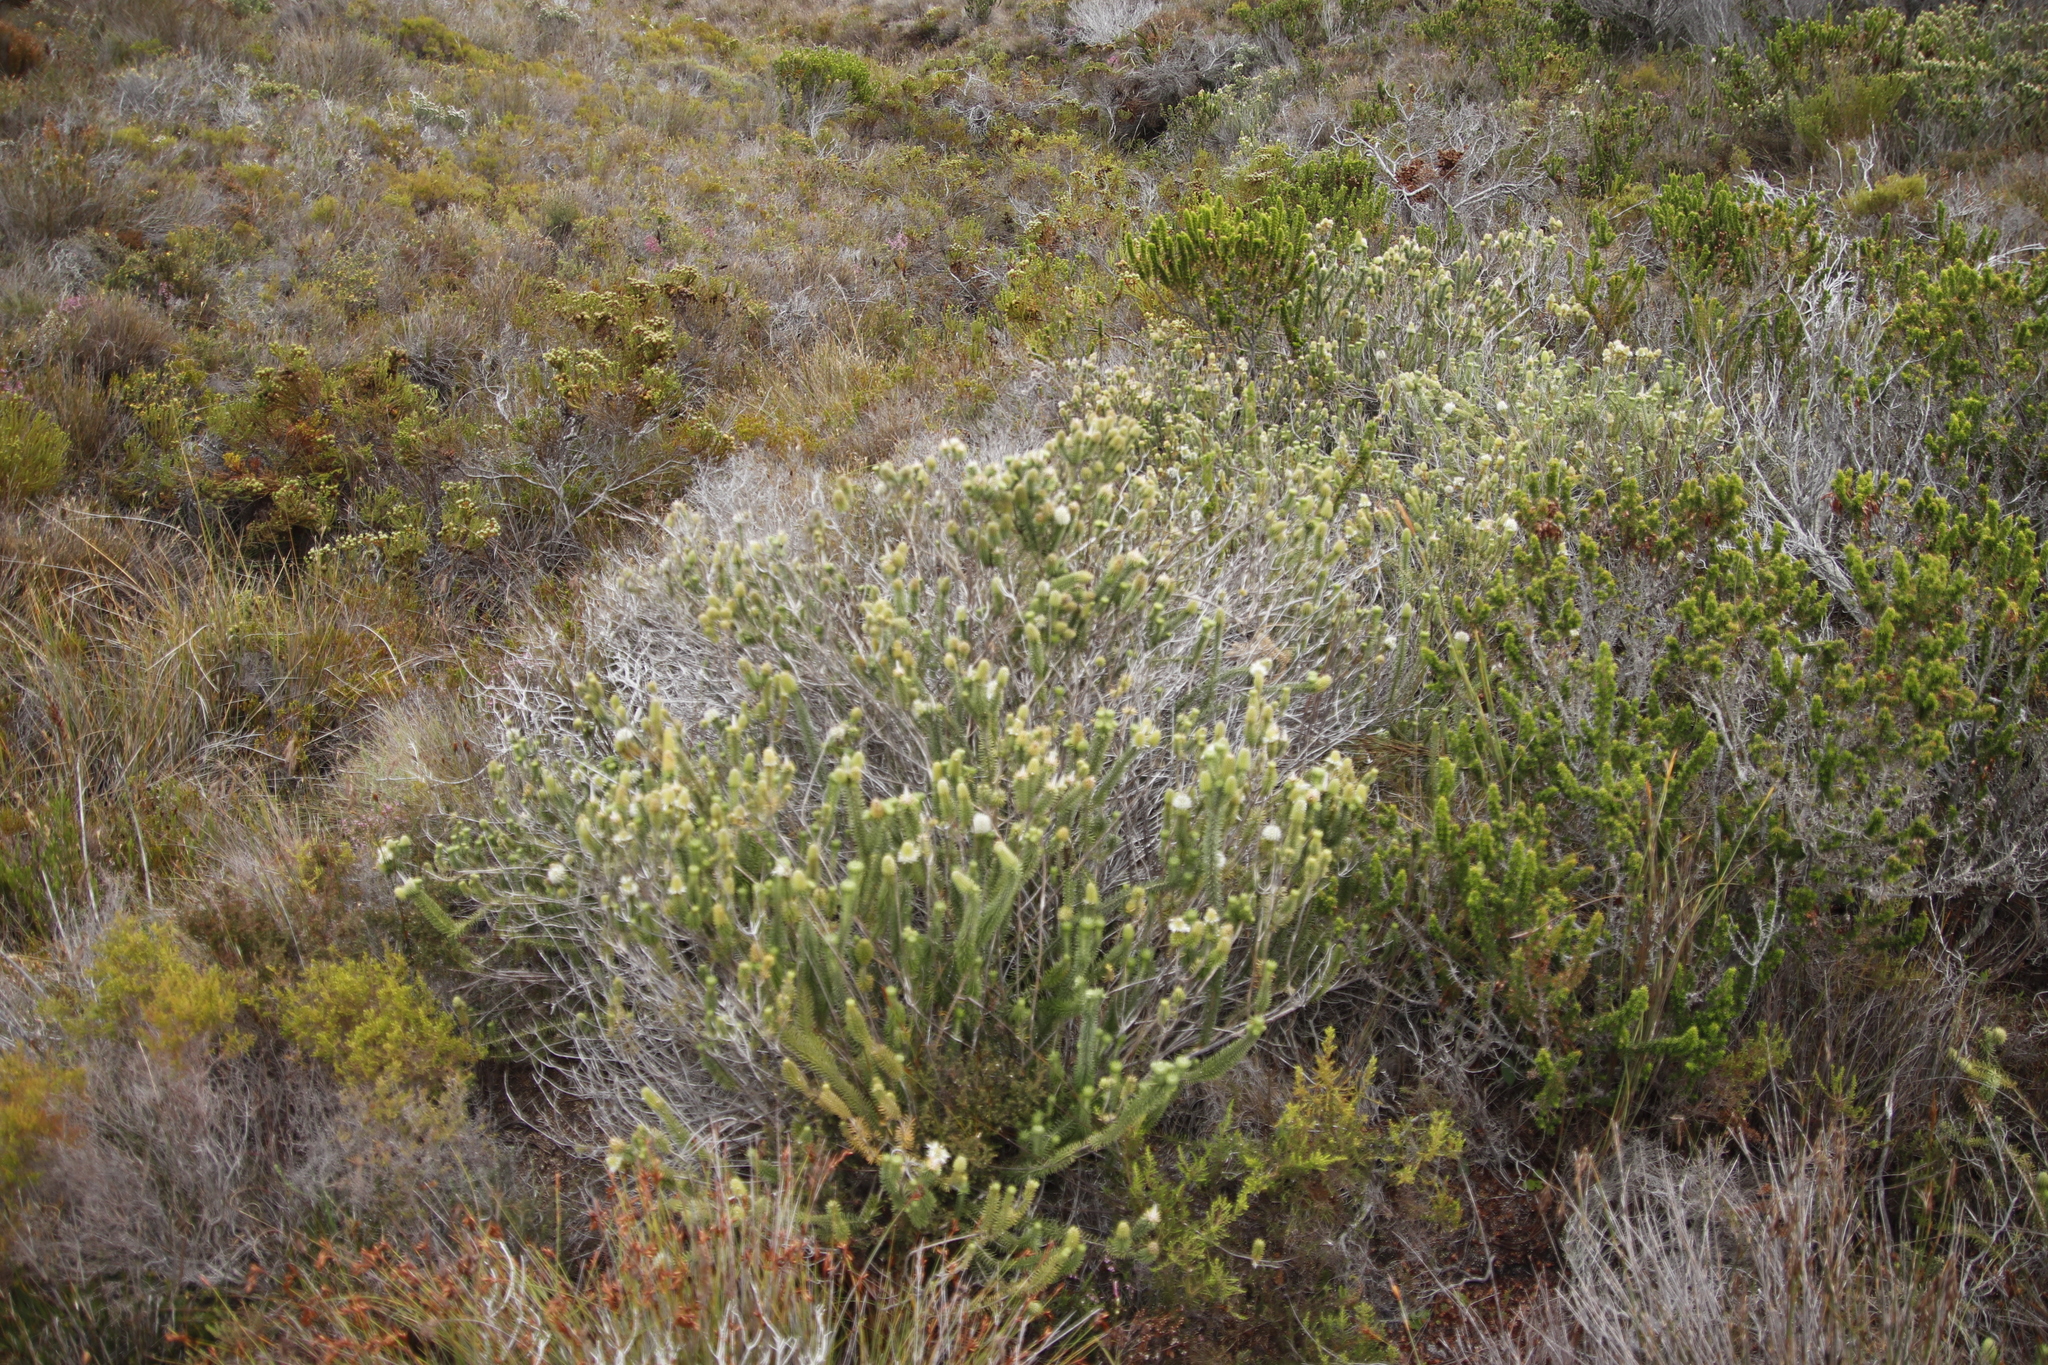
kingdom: Plantae
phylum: Tracheophyta
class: Magnoliopsida
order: Lamiales
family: Stilbaceae
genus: Stilbe
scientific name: Stilbe vestita
